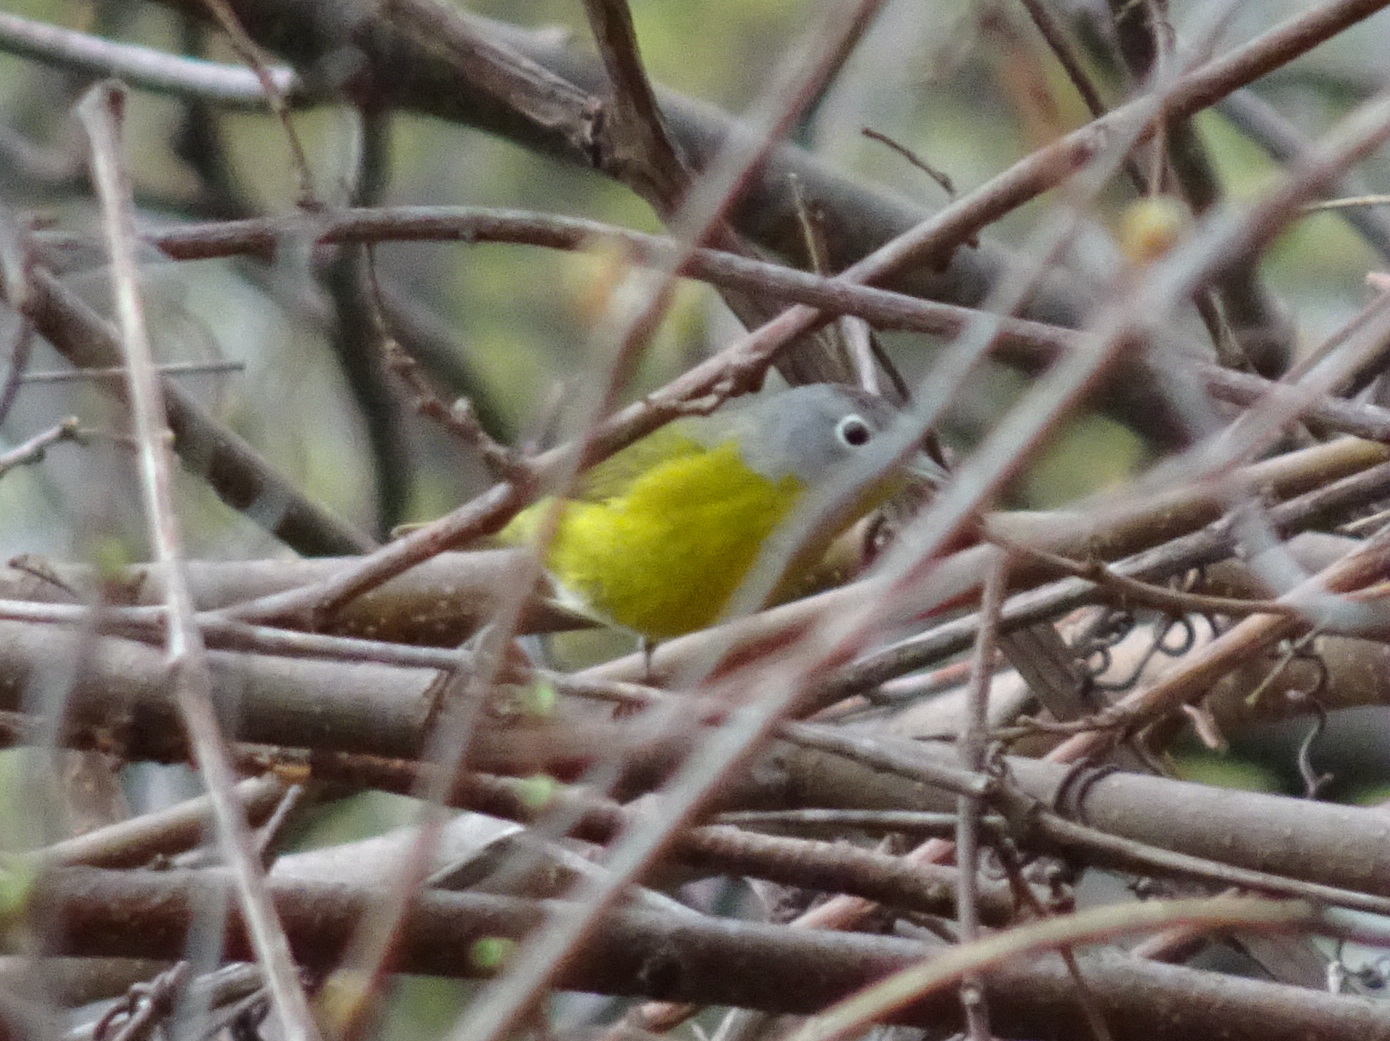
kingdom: Animalia
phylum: Chordata
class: Aves
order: Passeriformes
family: Parulidae
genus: Leiothlypis
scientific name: Leiothlypis ruficapilla
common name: Nashville warbler
